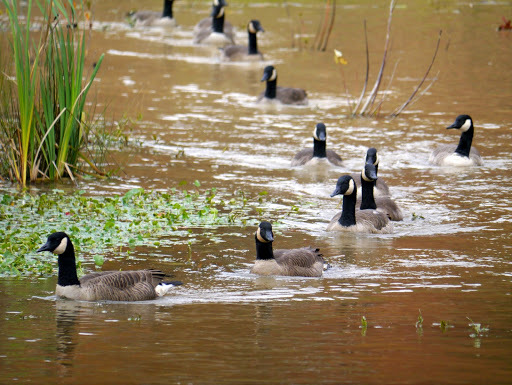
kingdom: Animalia
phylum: Chordata
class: Aves
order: Anseriformes
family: Anatidae
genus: Branta
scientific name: Branta canadensis
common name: Canada goose
